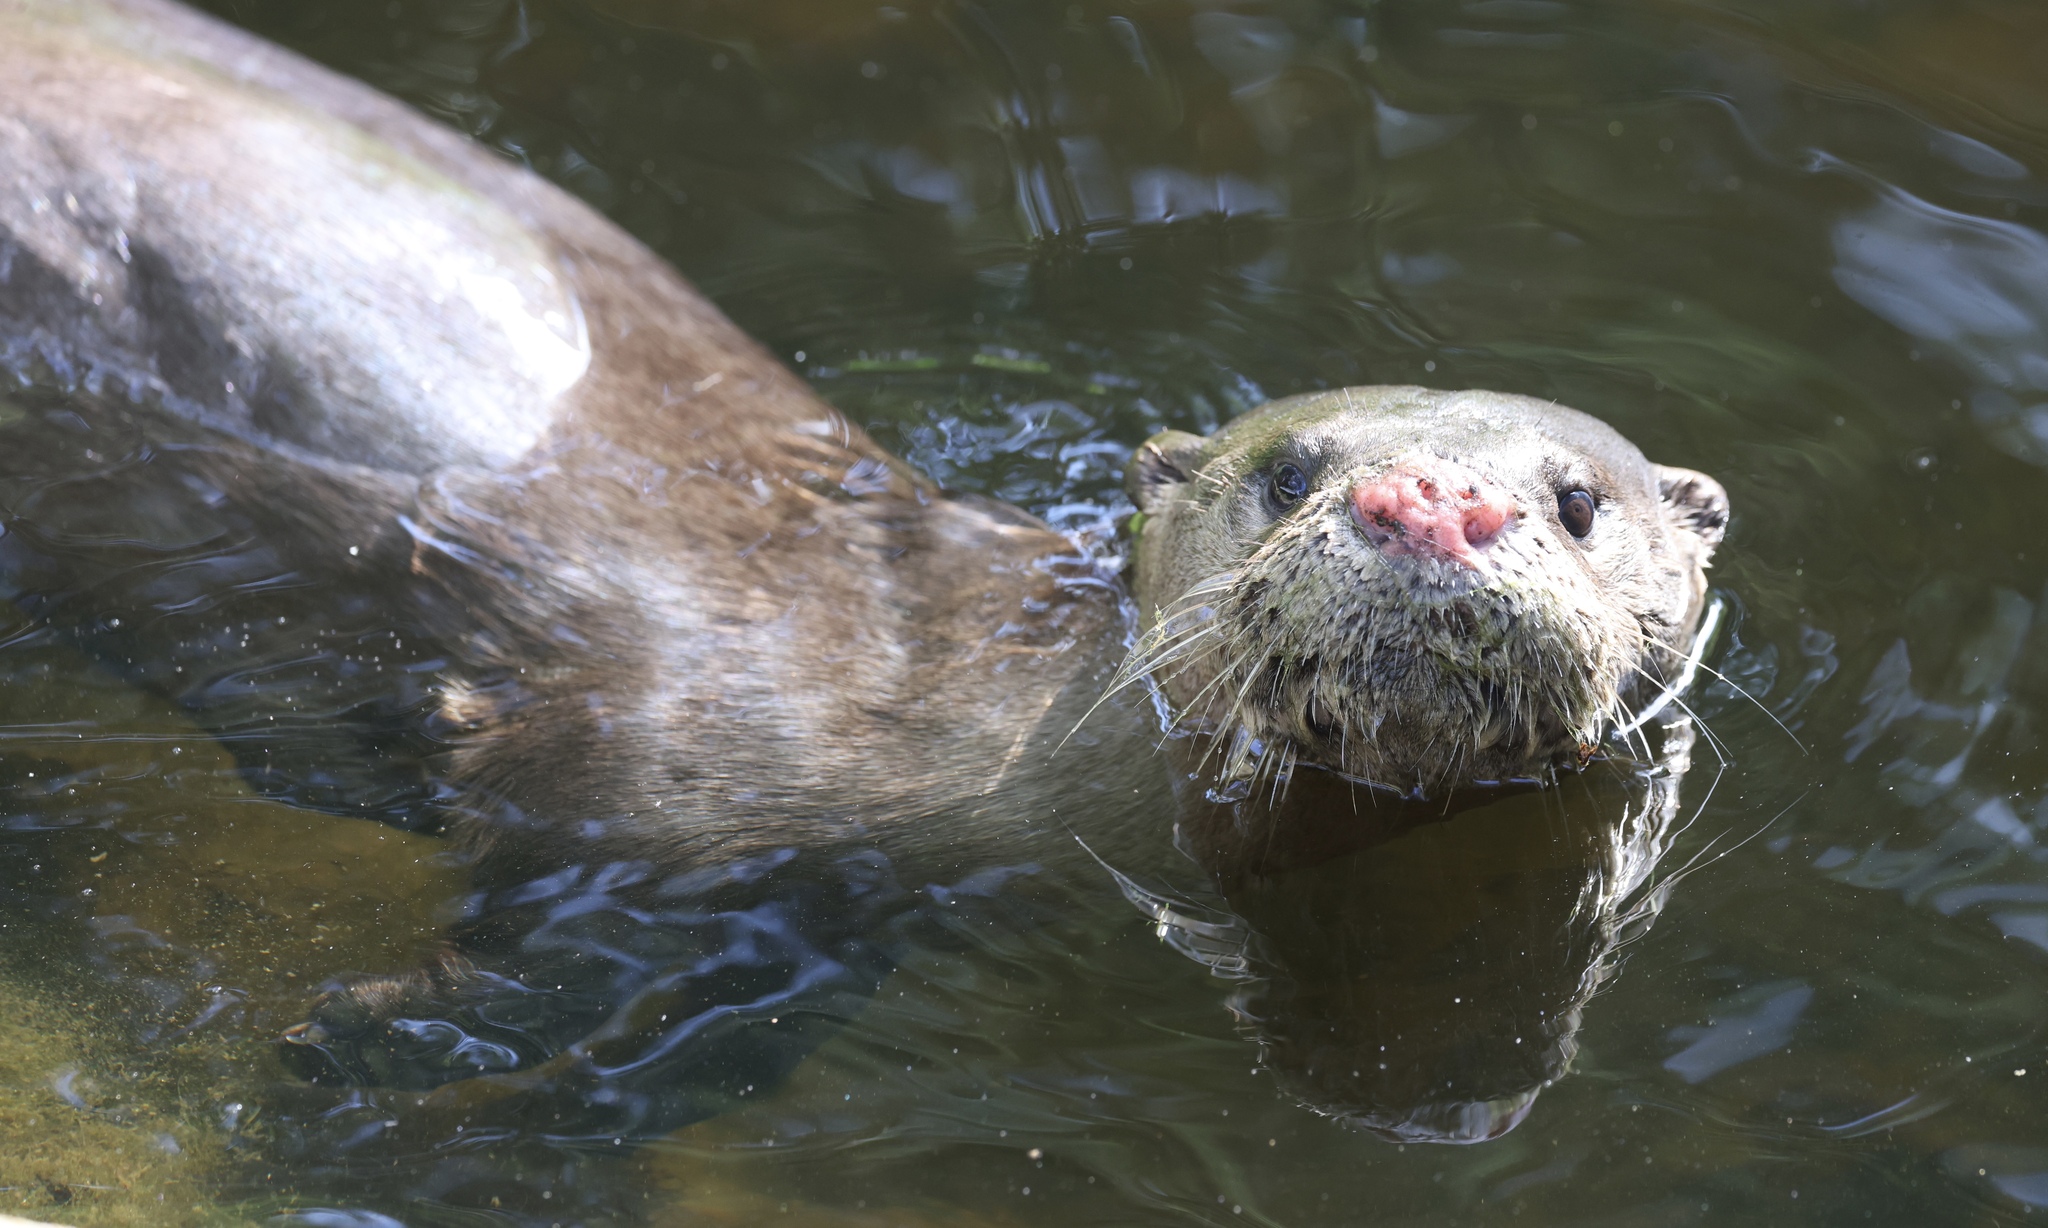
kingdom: Animalia
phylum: Chordata
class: Mammalia
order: Carnivora
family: Mustelidae
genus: Lontra
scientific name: Lontra canadensis
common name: North american river otter
